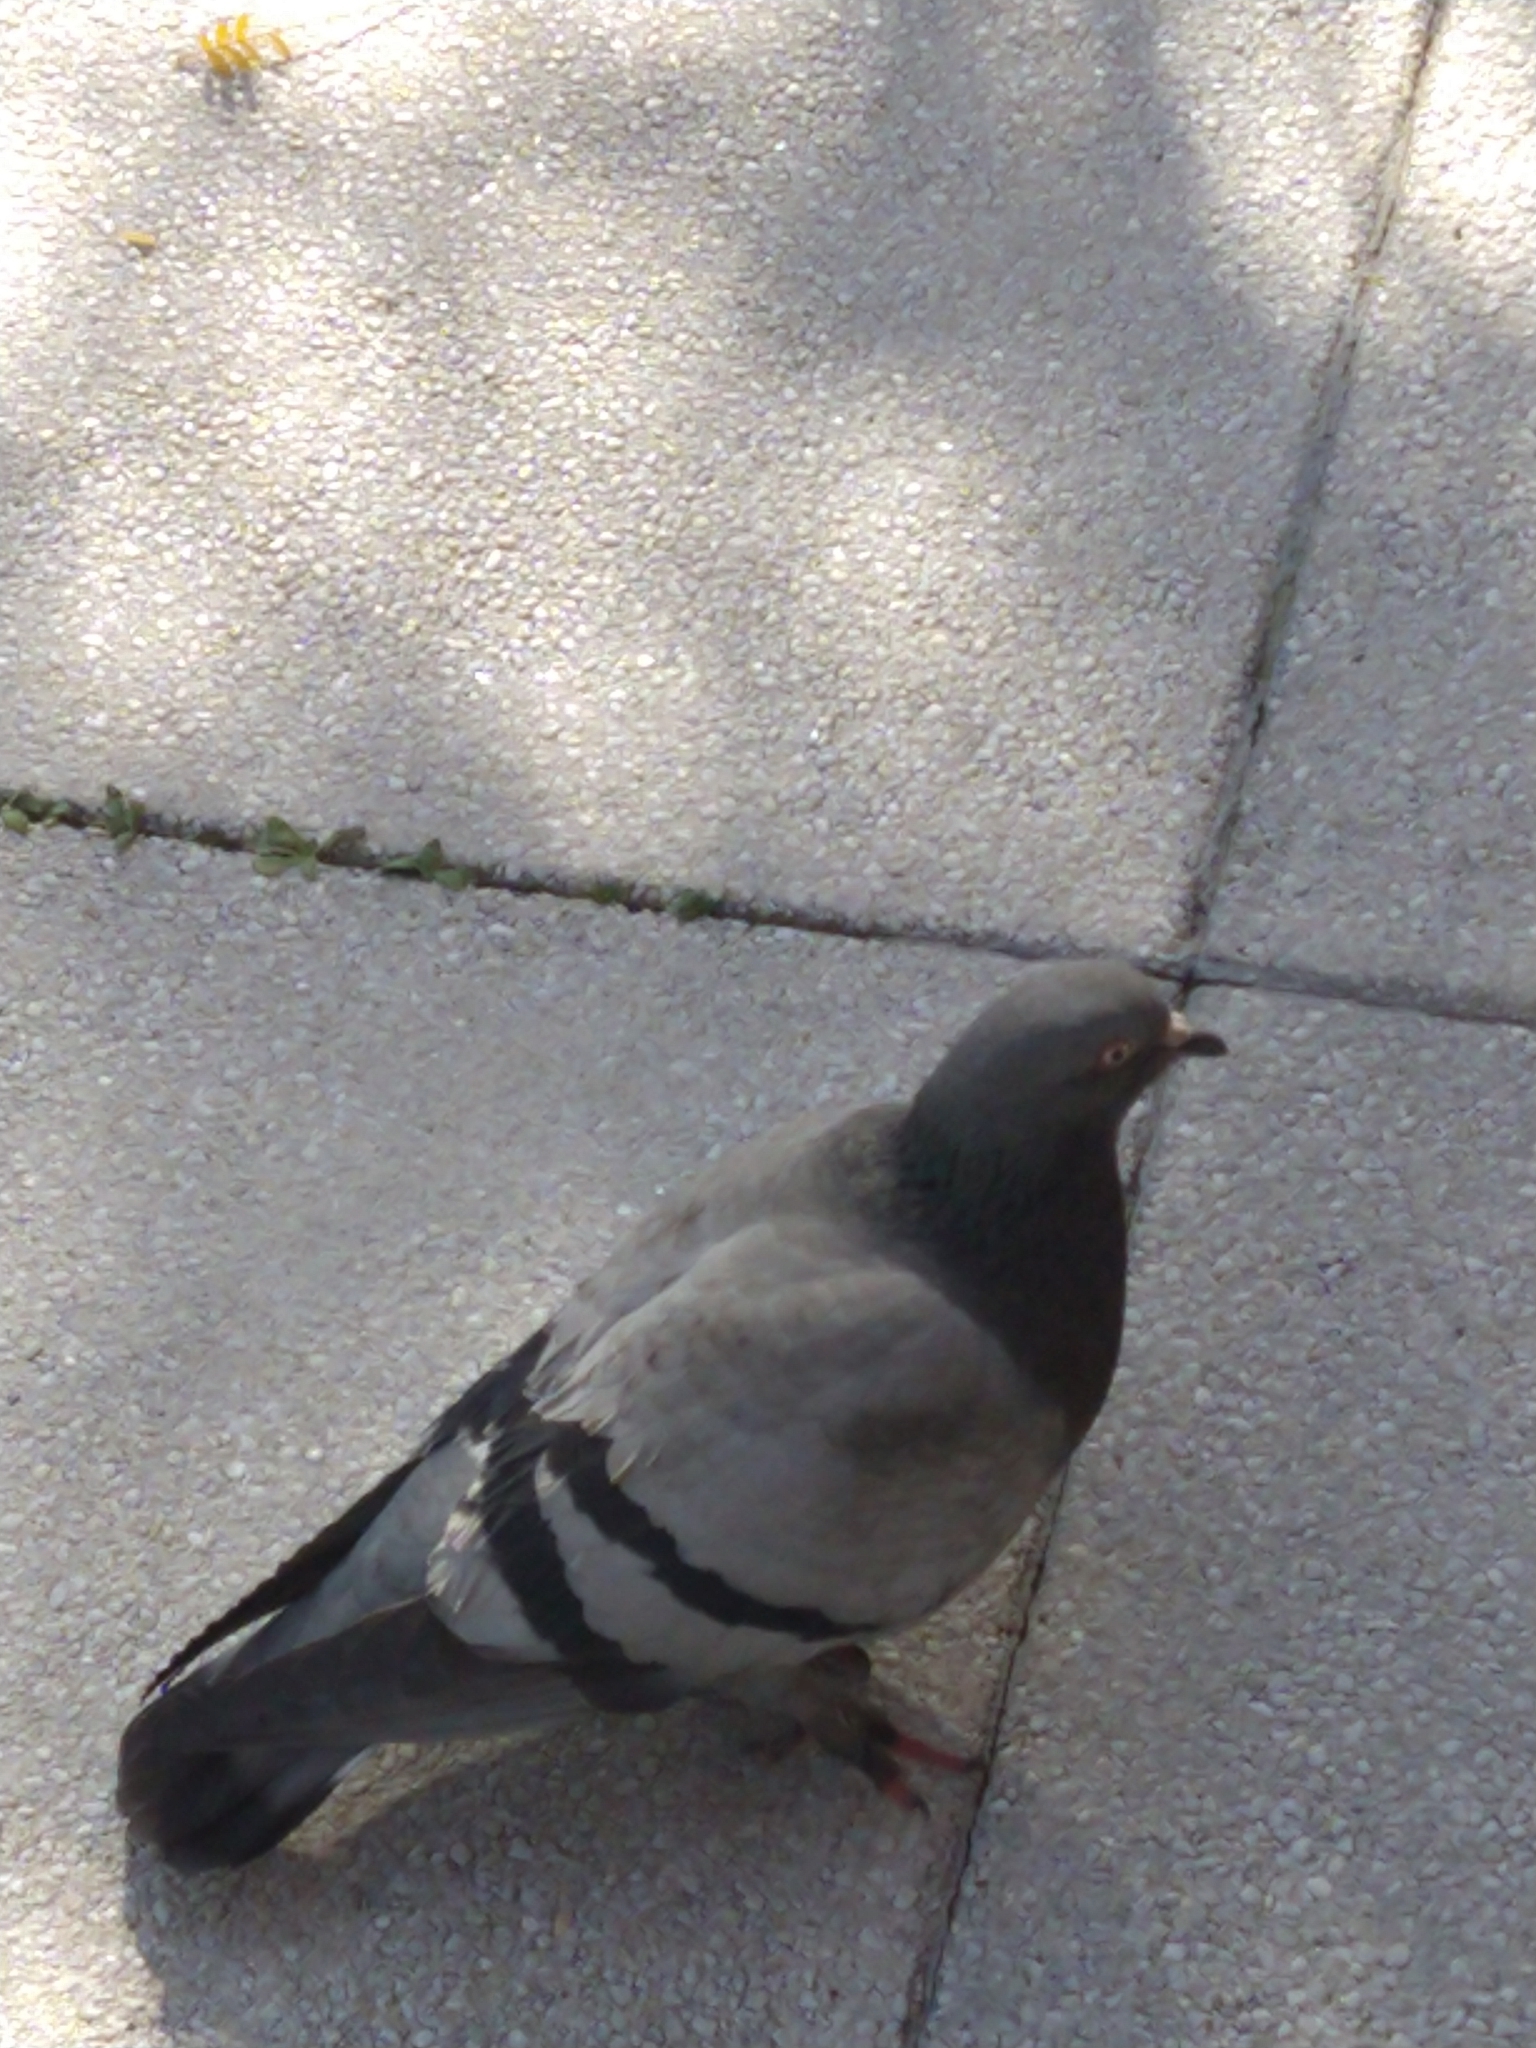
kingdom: Animalia
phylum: Chordata
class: Aves
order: Columbiformes
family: Columbidae
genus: Columba
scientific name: Columba livia
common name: Rock pigeon
